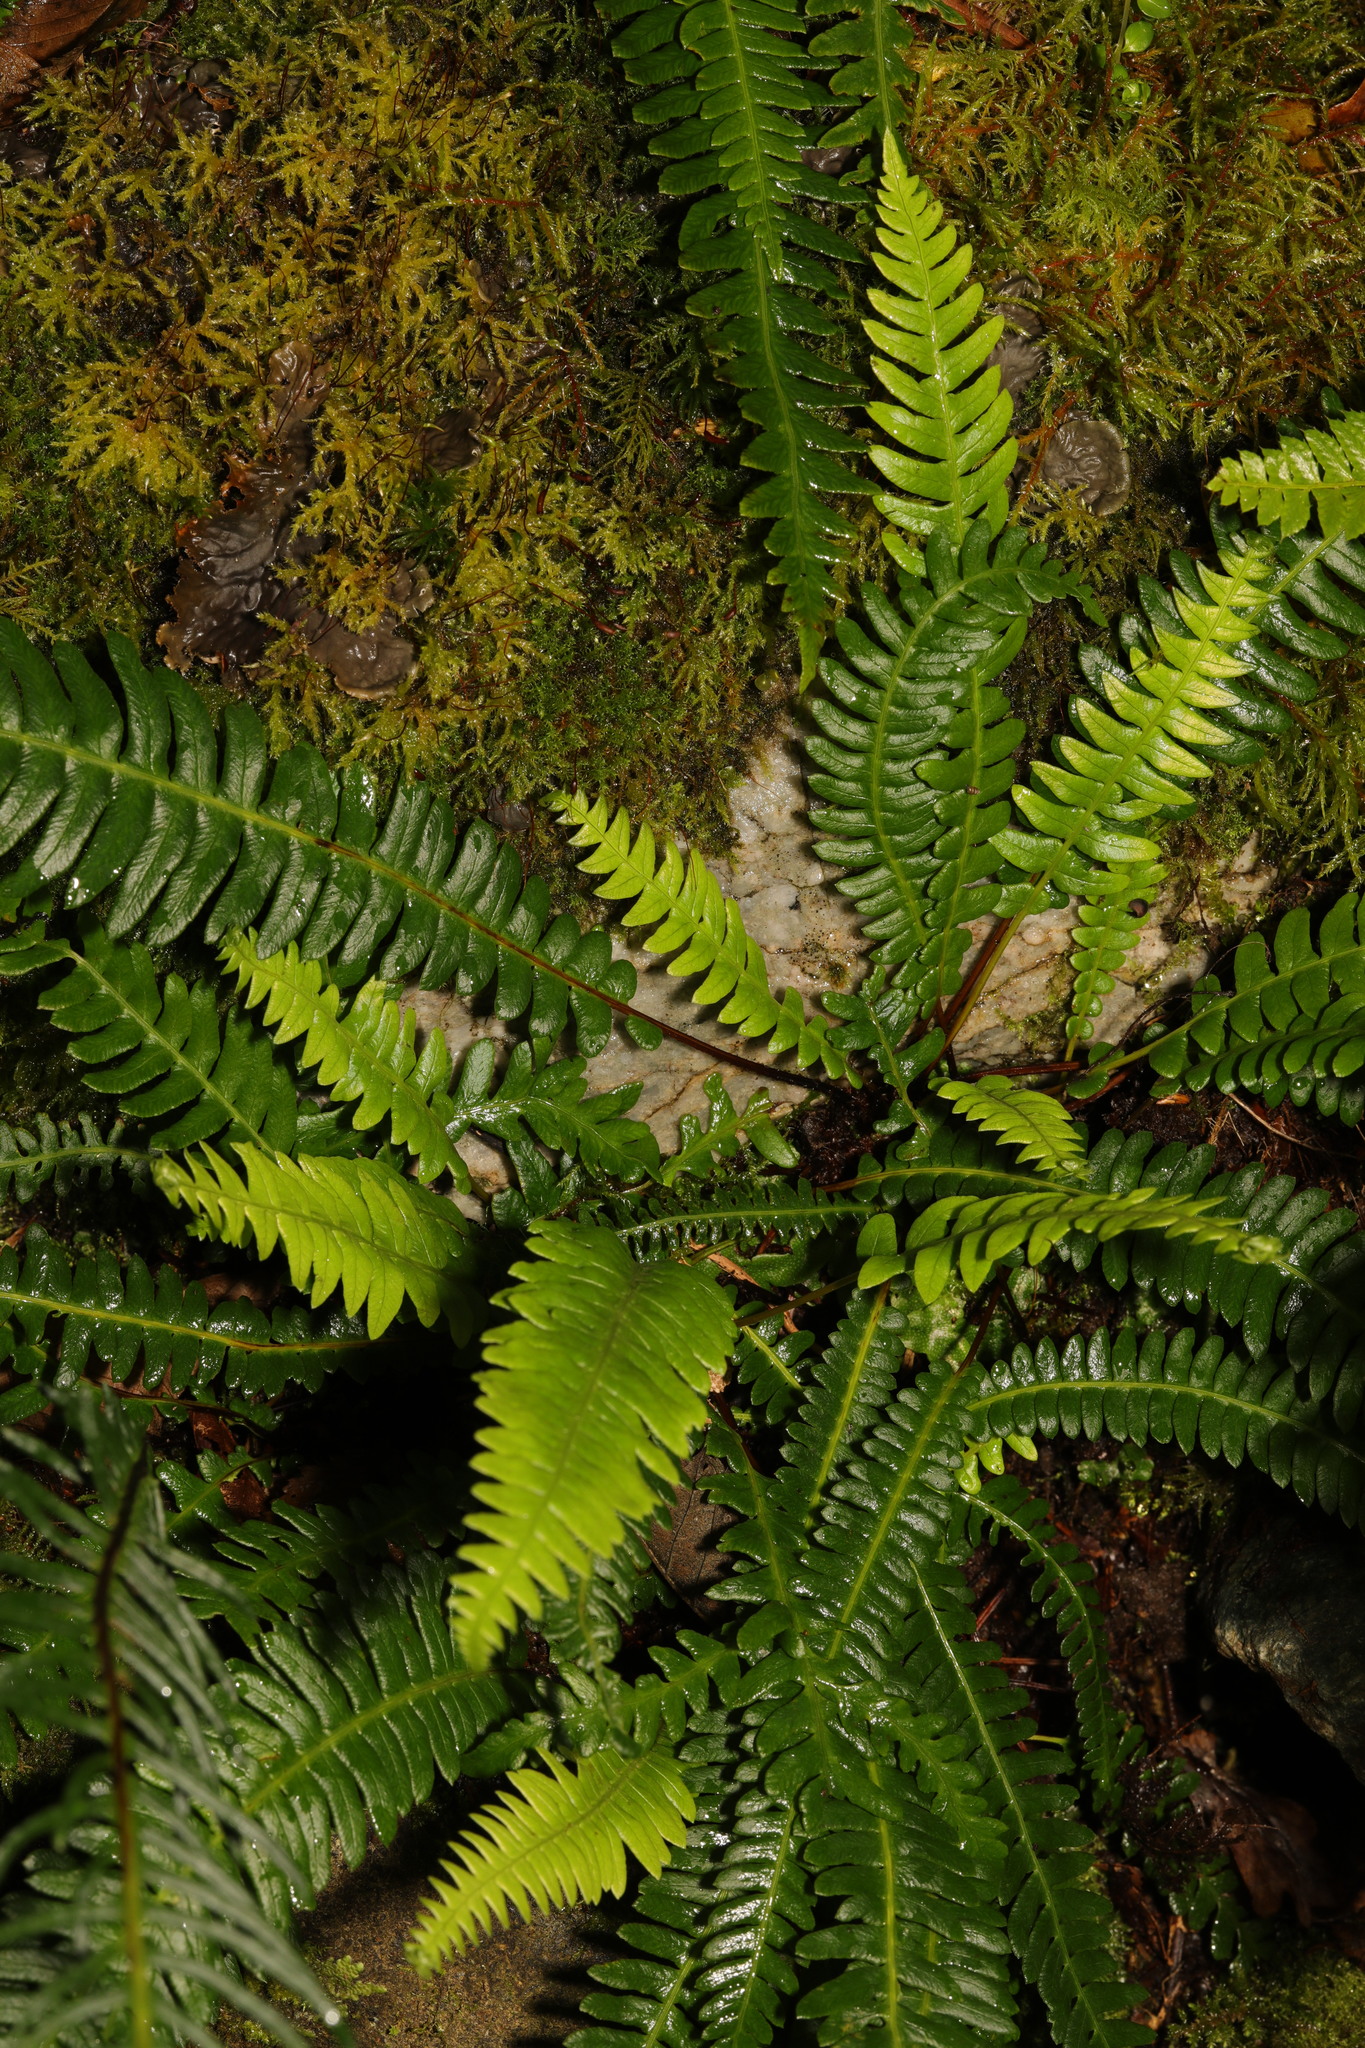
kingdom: Plantae
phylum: Tracheophyta
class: Polypodiopsida
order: Polypodiales
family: Blechnaceae
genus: Struthiopteris
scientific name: Struthiopteris spicant
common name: Deer fern
